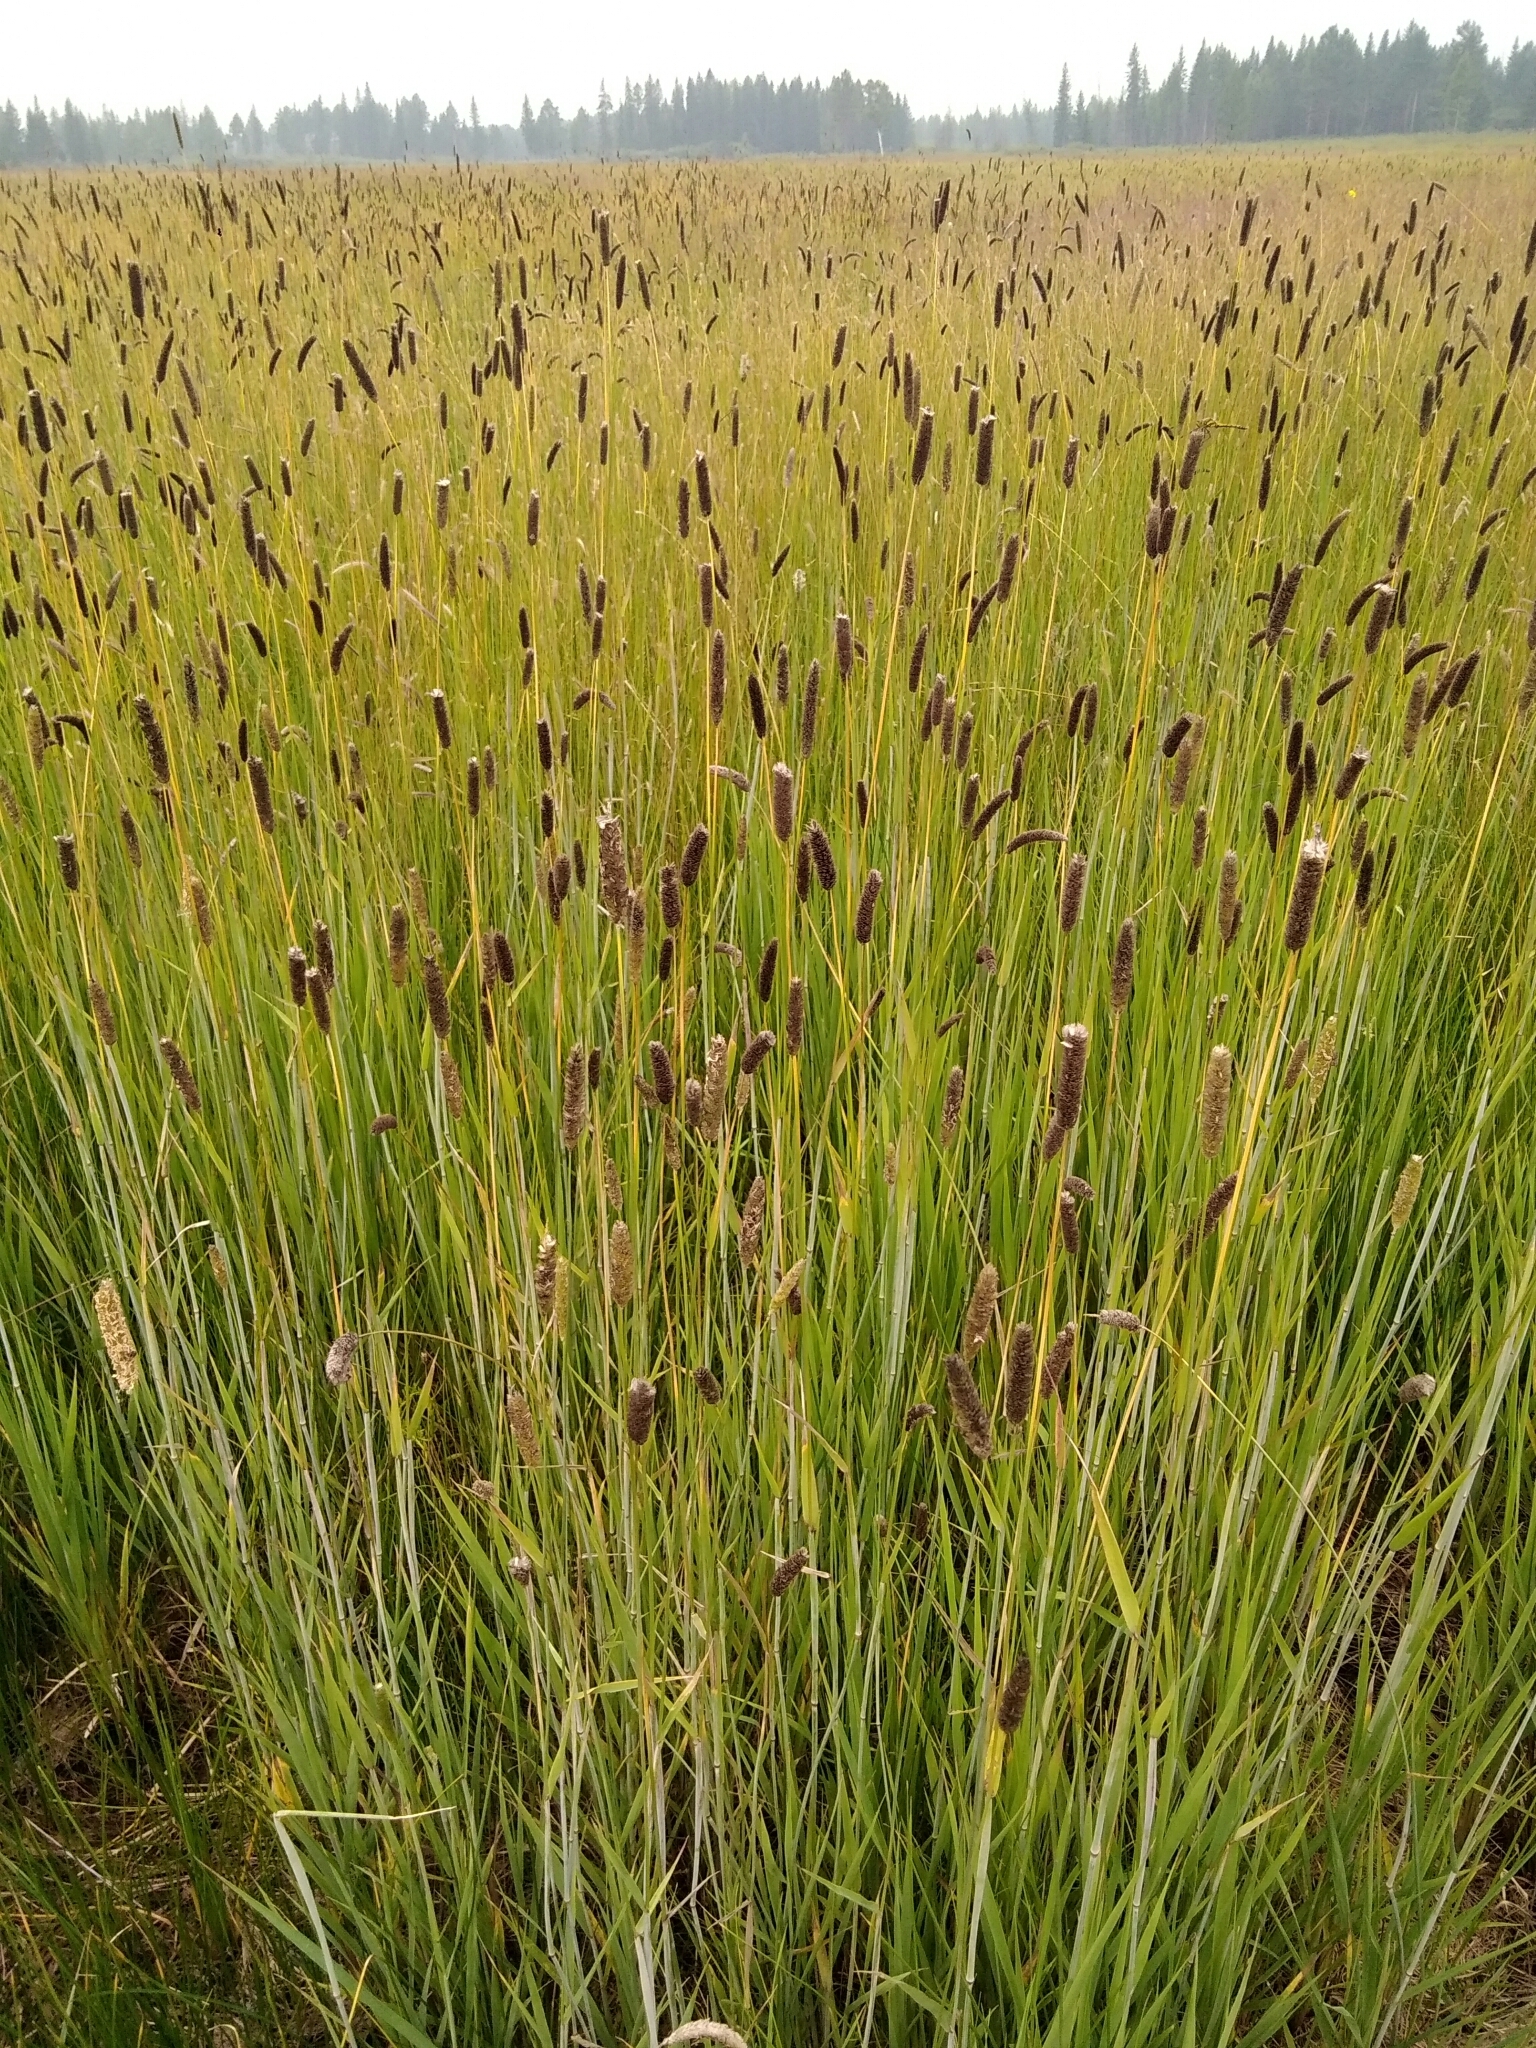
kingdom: Plantae
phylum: Tracheophyta
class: Liliopsida
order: Poales
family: Poaceae
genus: Alopecurus
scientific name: Alopecurus arundinaceus
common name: Creeping meadow foxtail
